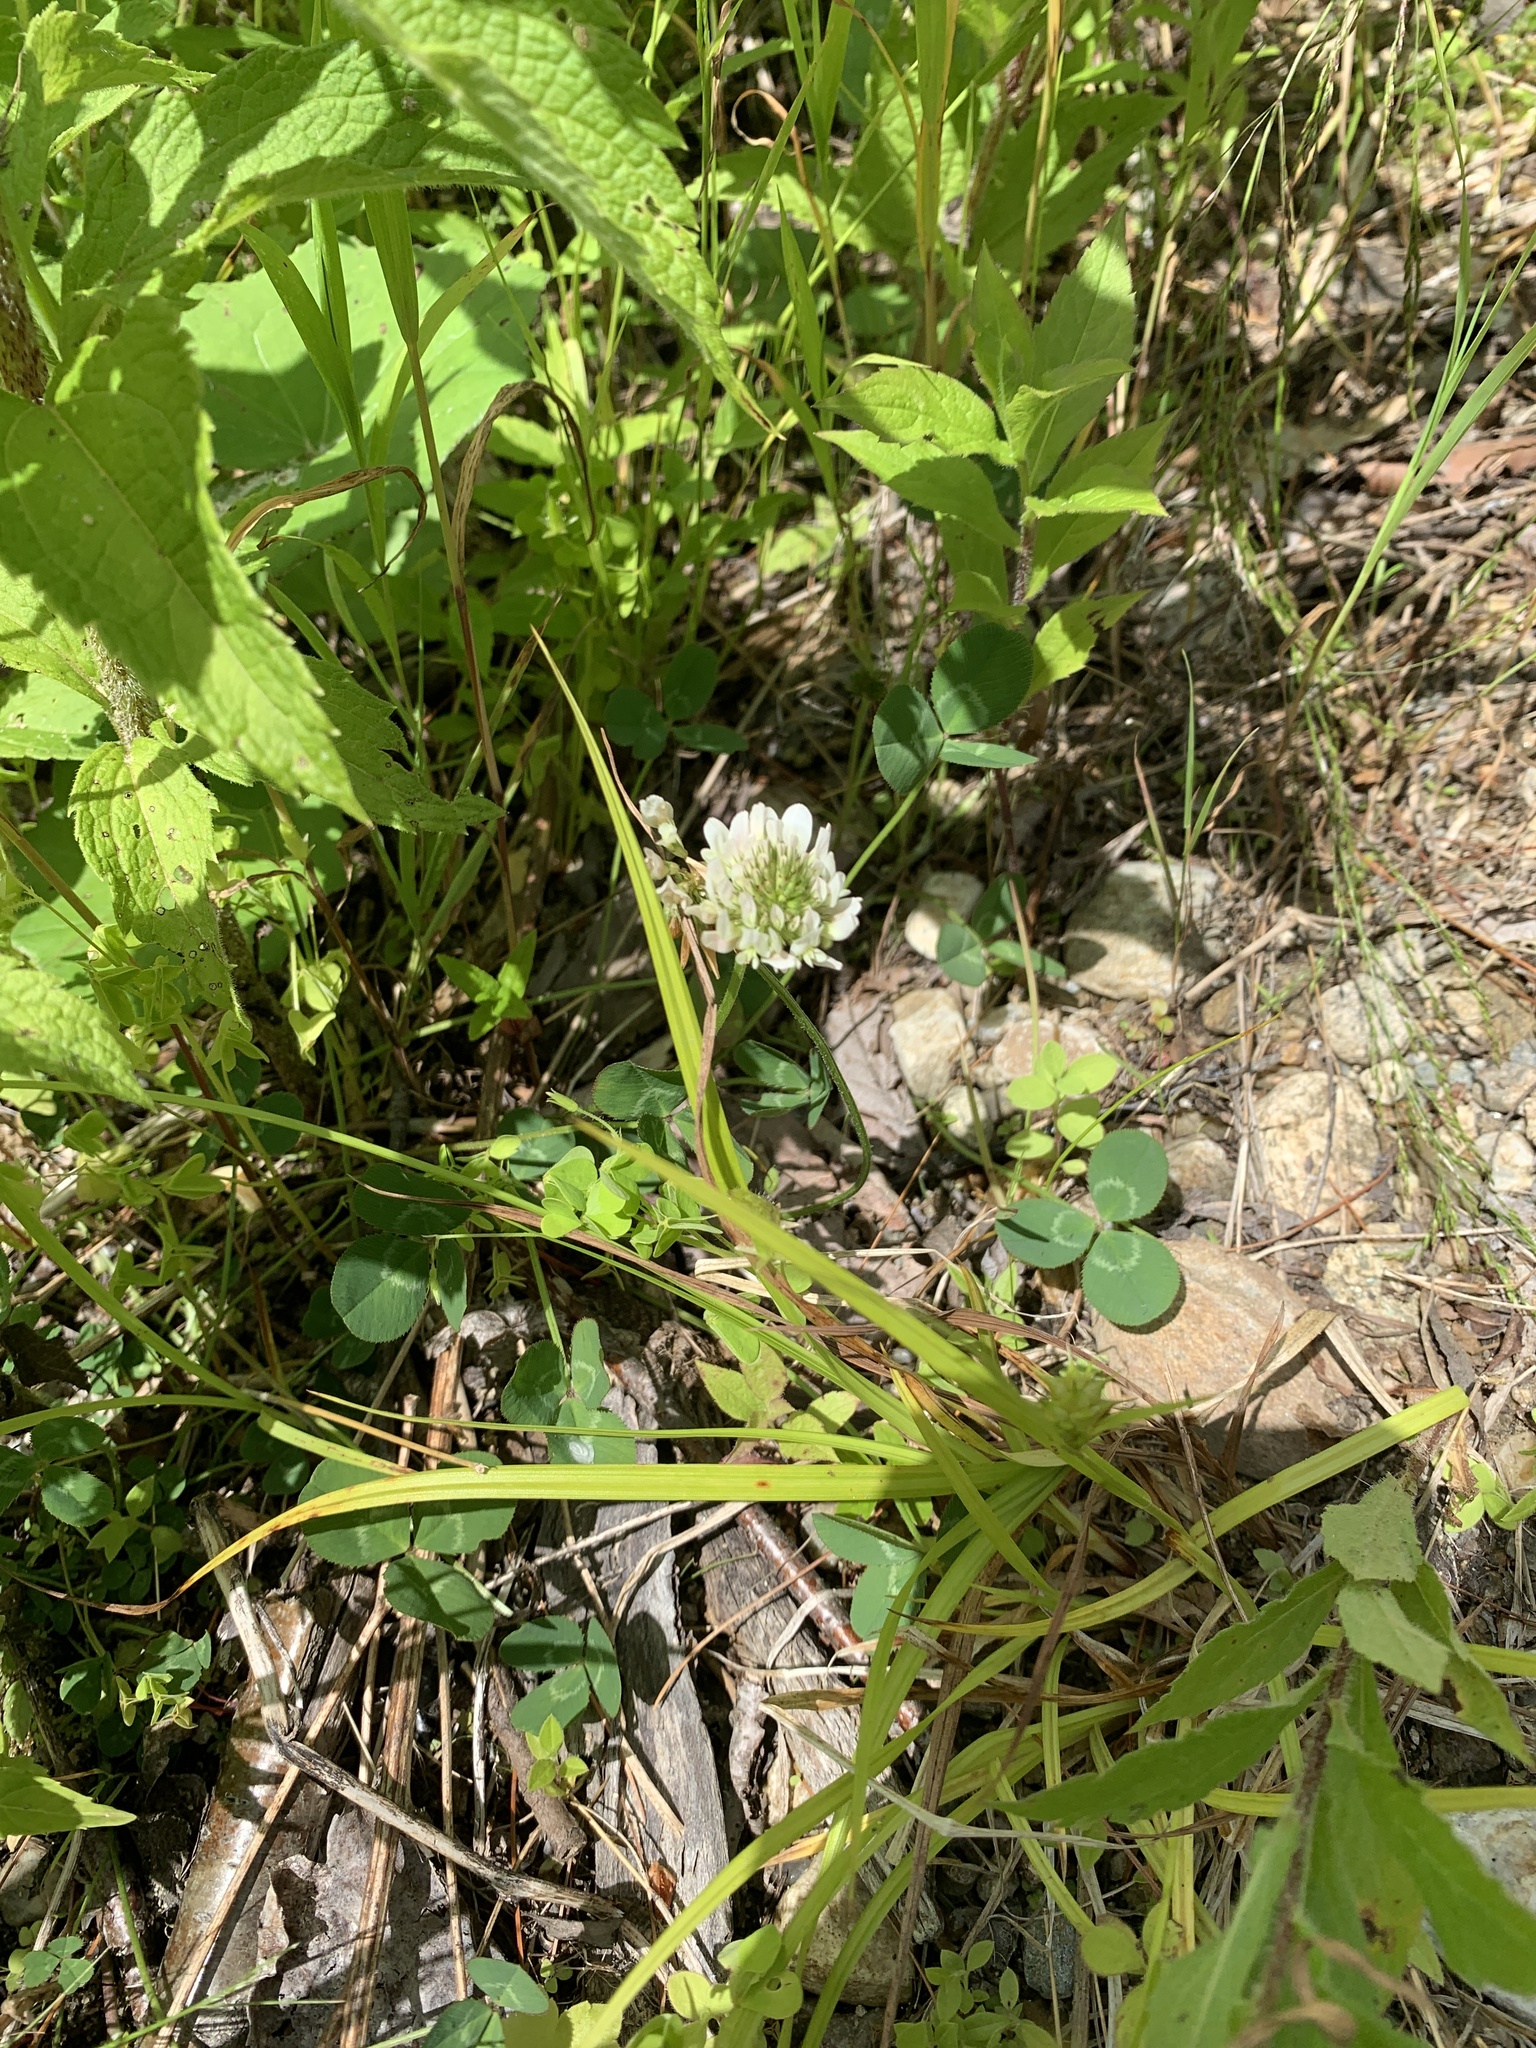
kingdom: Plantae
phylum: Tracheophyta
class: Magnoliopsida
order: Fabales
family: Fabaceae
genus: Trifolium
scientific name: Trifolium repens
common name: White clover
